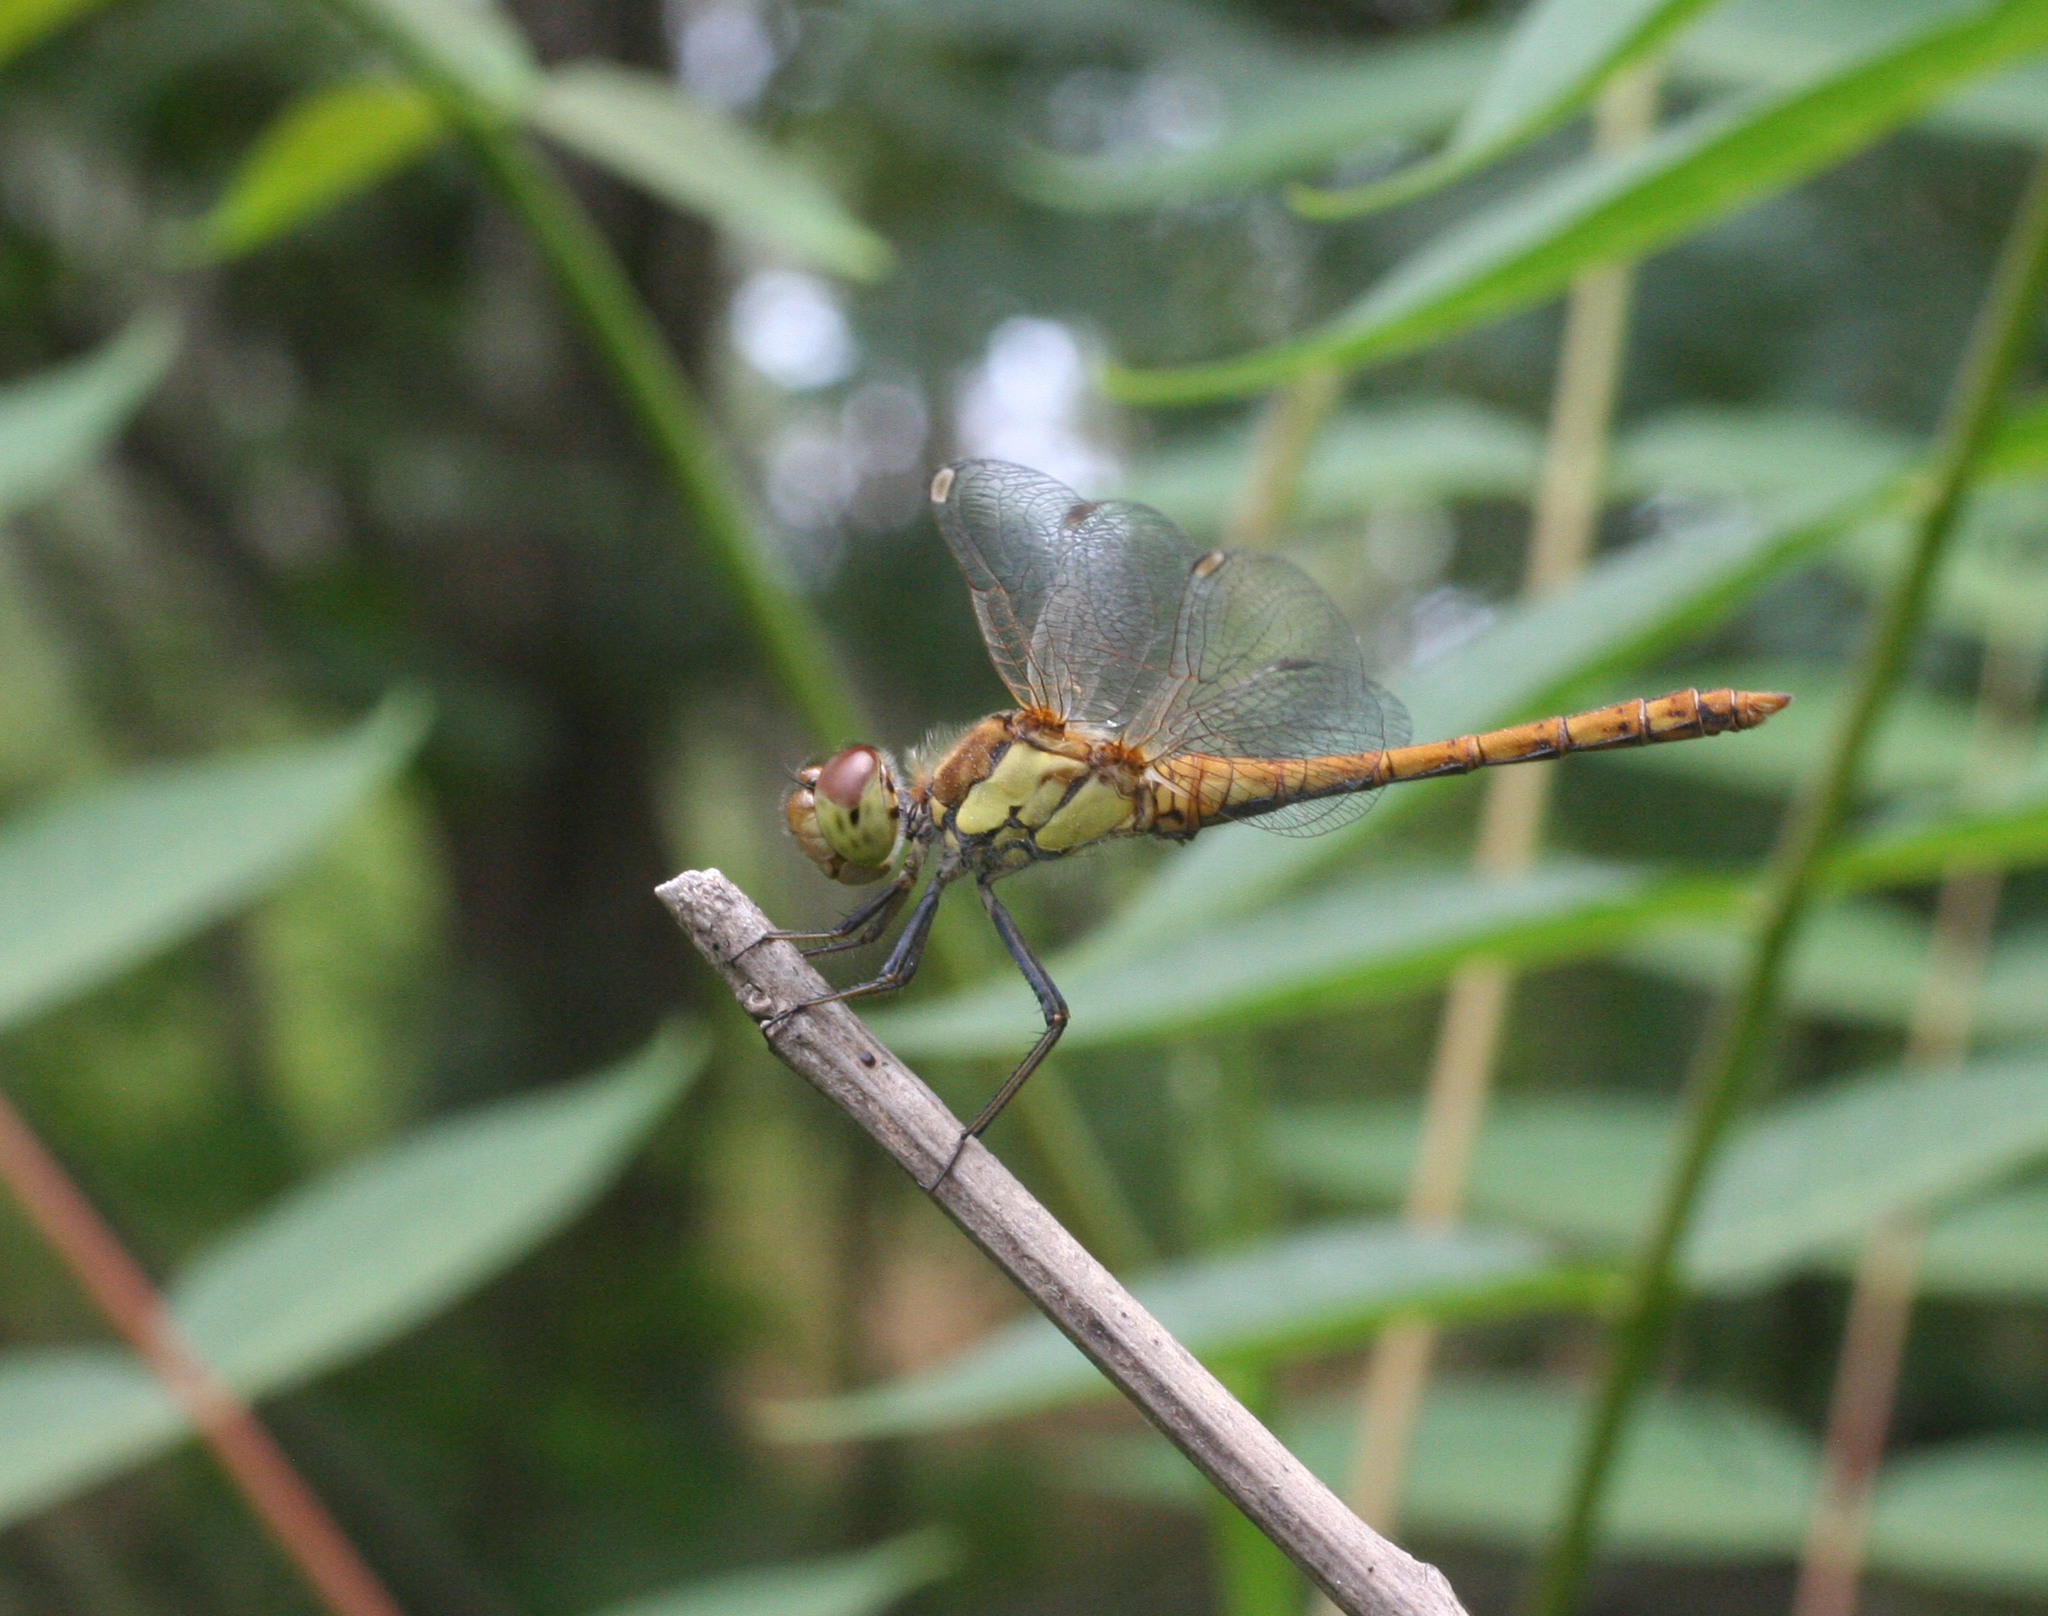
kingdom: Animalia
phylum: Arthropoda
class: Insecta
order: Odonata
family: Libellulidae
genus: Sympetrum
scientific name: Sympetrum striolatum
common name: Common darter
